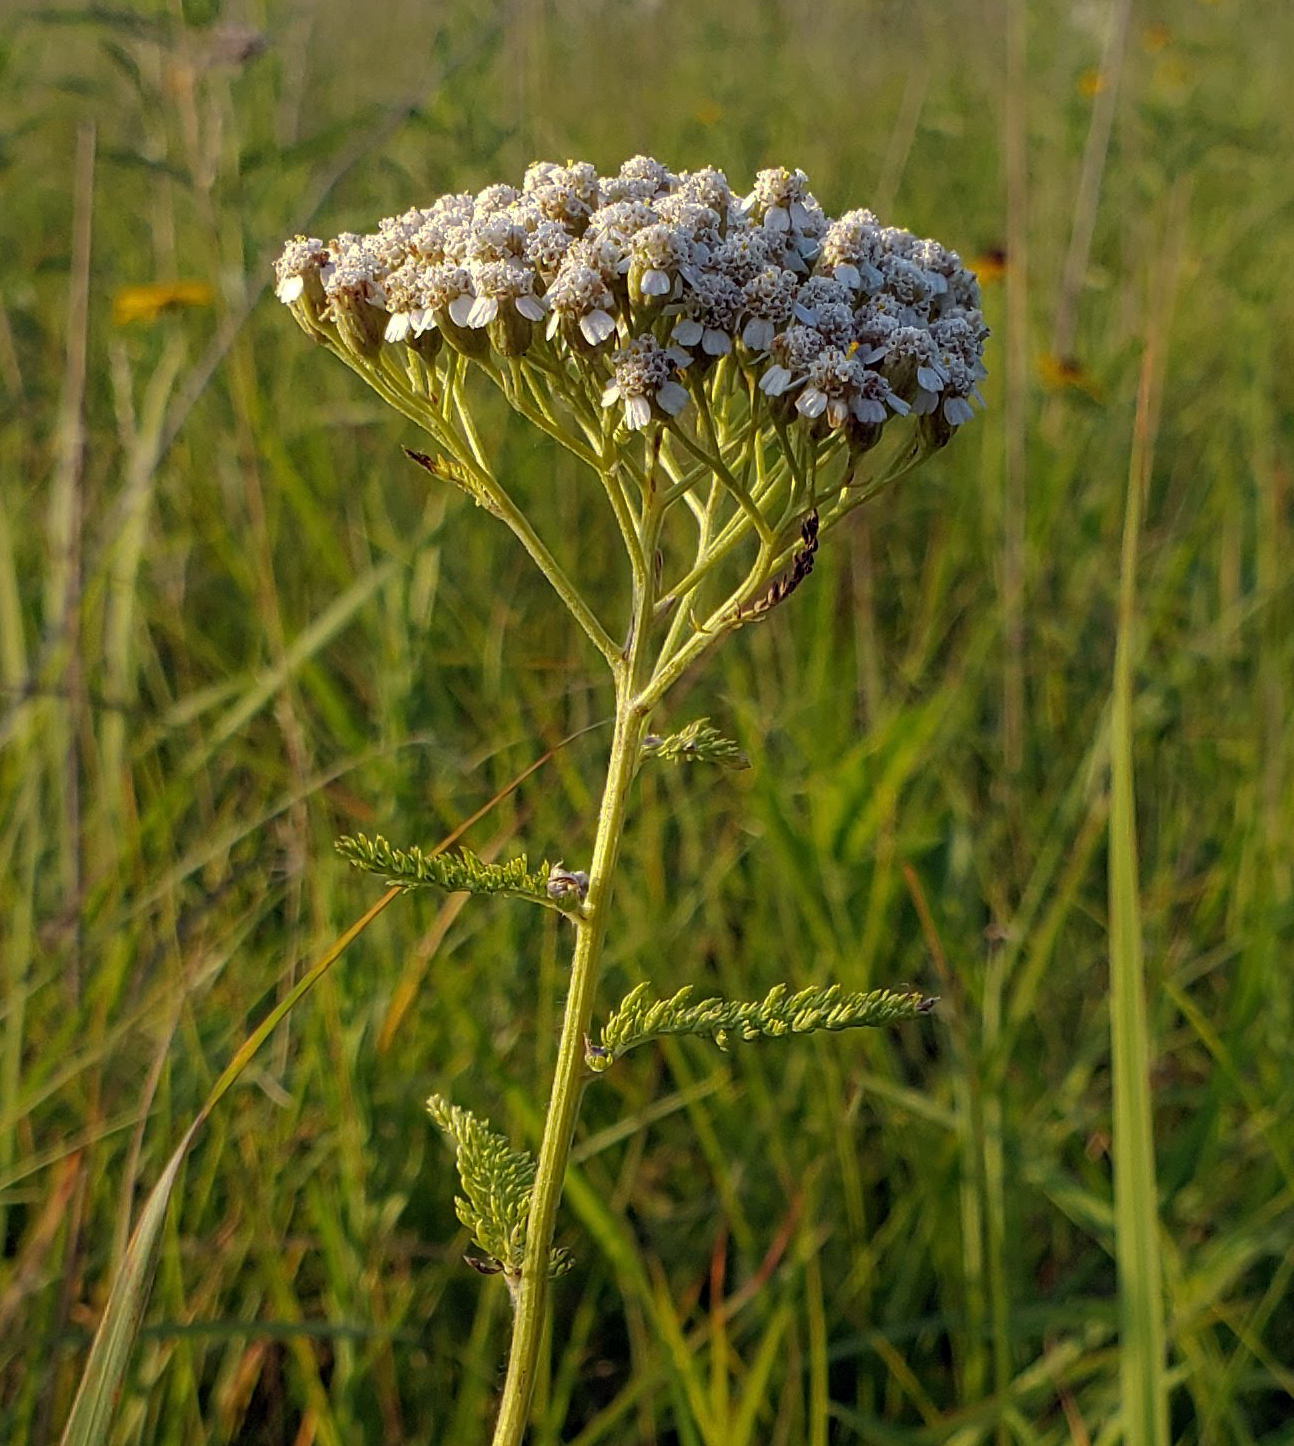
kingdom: Plantae
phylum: Tracheophyta
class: Magnoliopsida
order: Asterales
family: Asteraceae
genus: Achillea
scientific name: Achillea millefolium
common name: Yarrow
